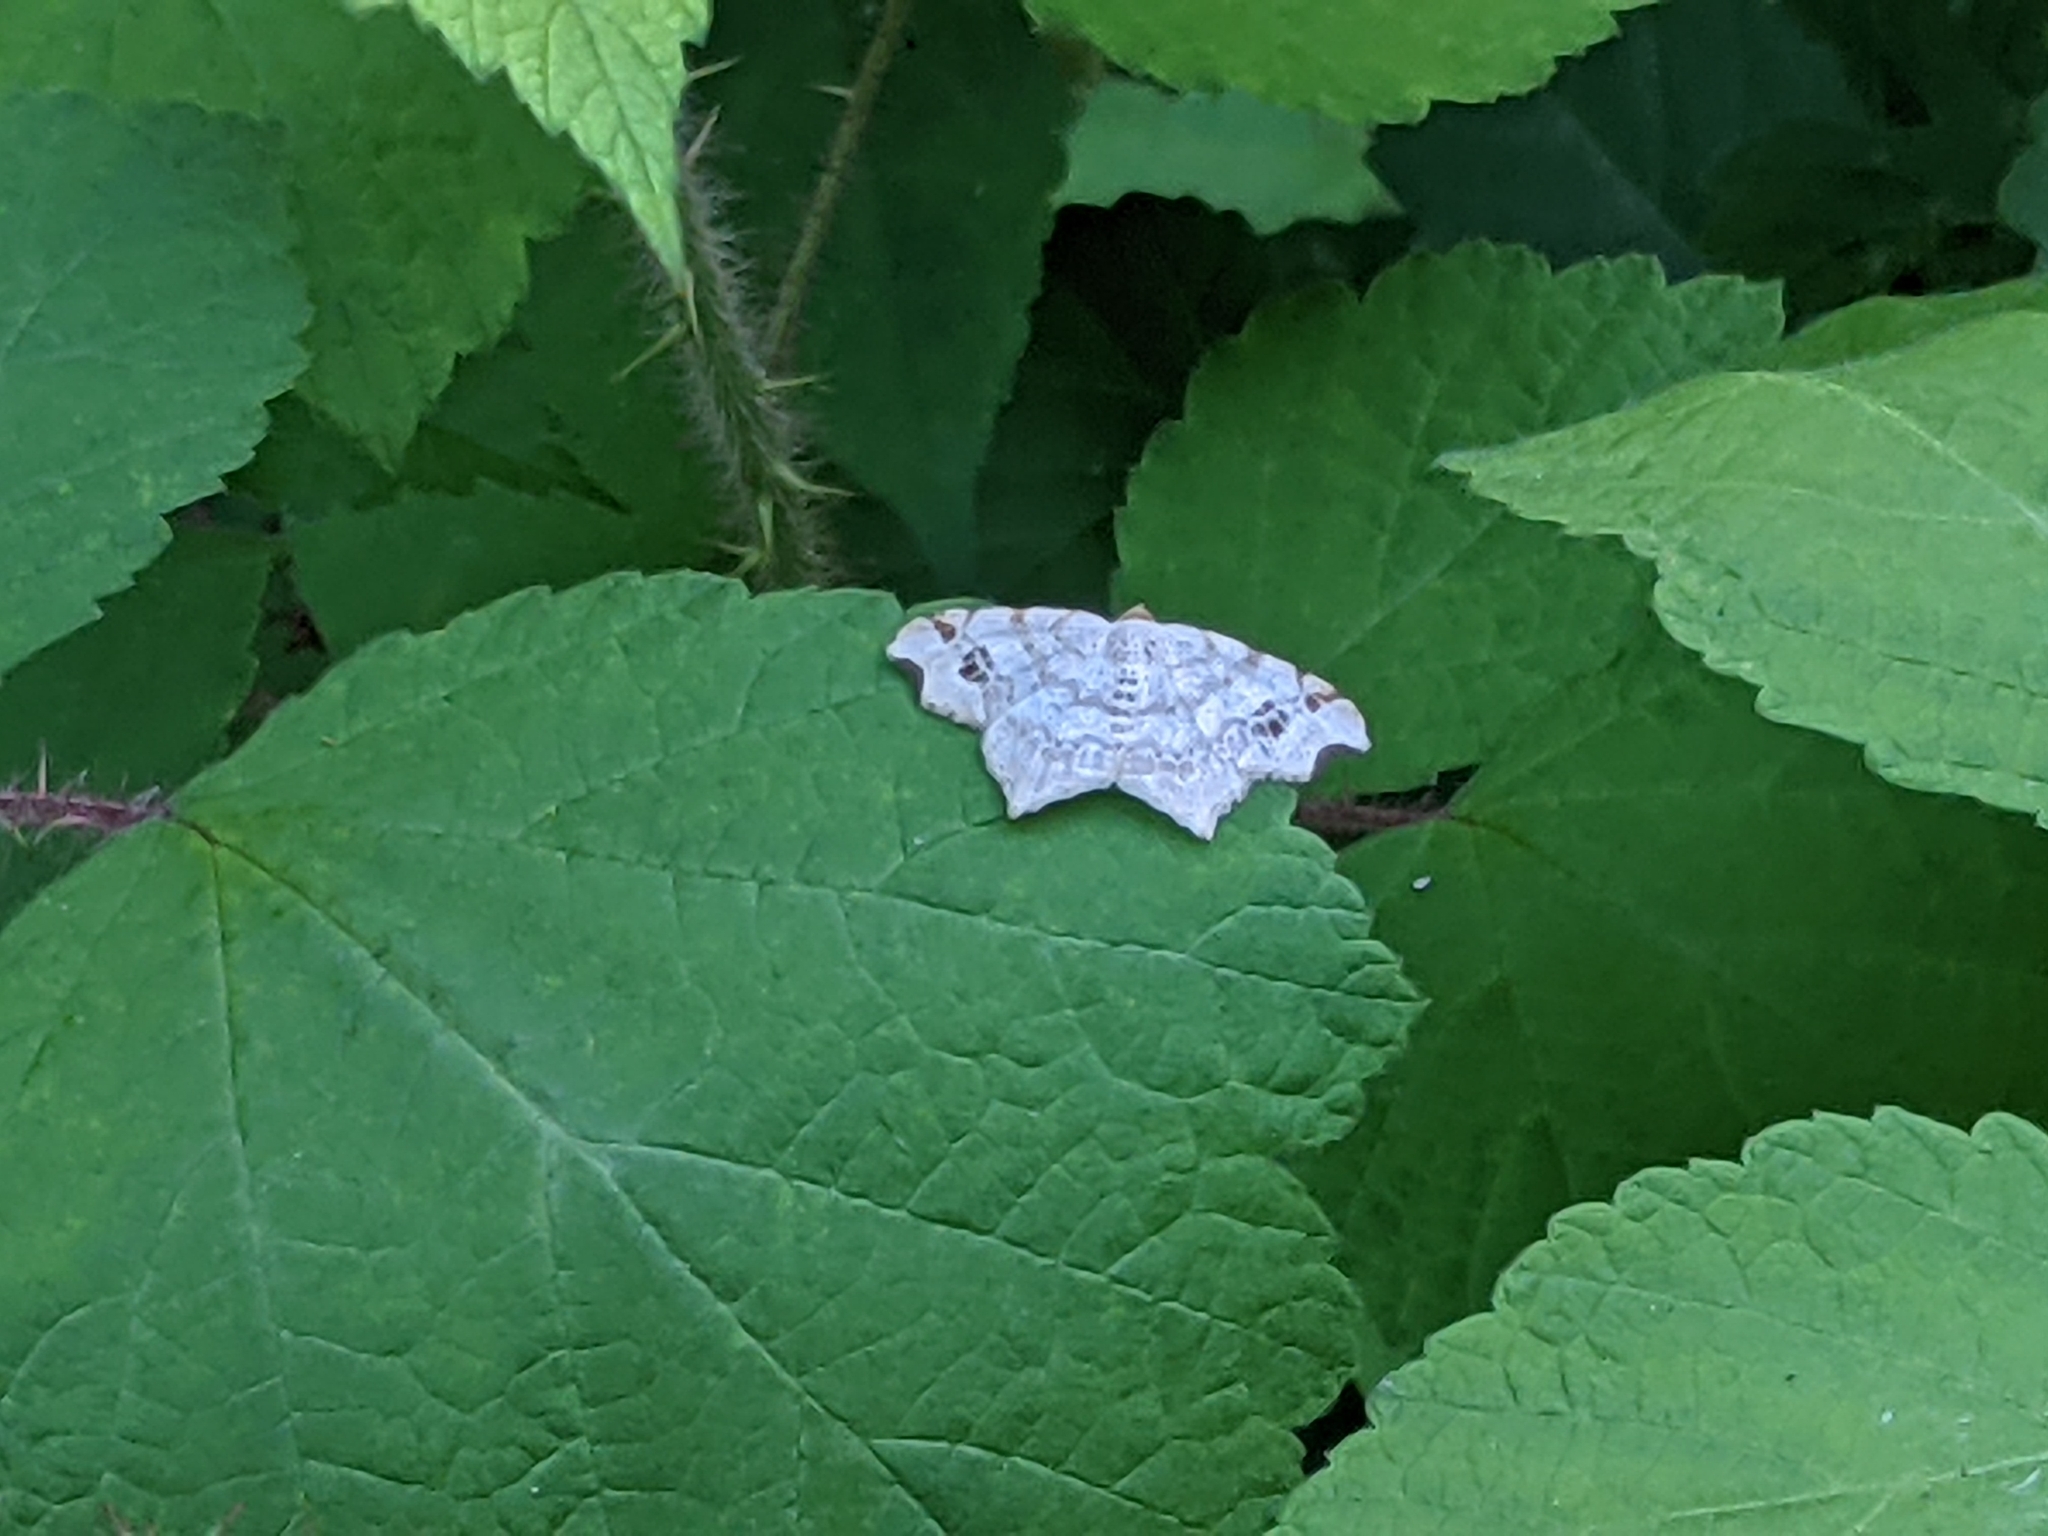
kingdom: Animalia
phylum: Arthropoda
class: Insecta
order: Lepidoptera
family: Geometridae
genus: Macaria
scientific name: Macaria aemulataria
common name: Common angle
